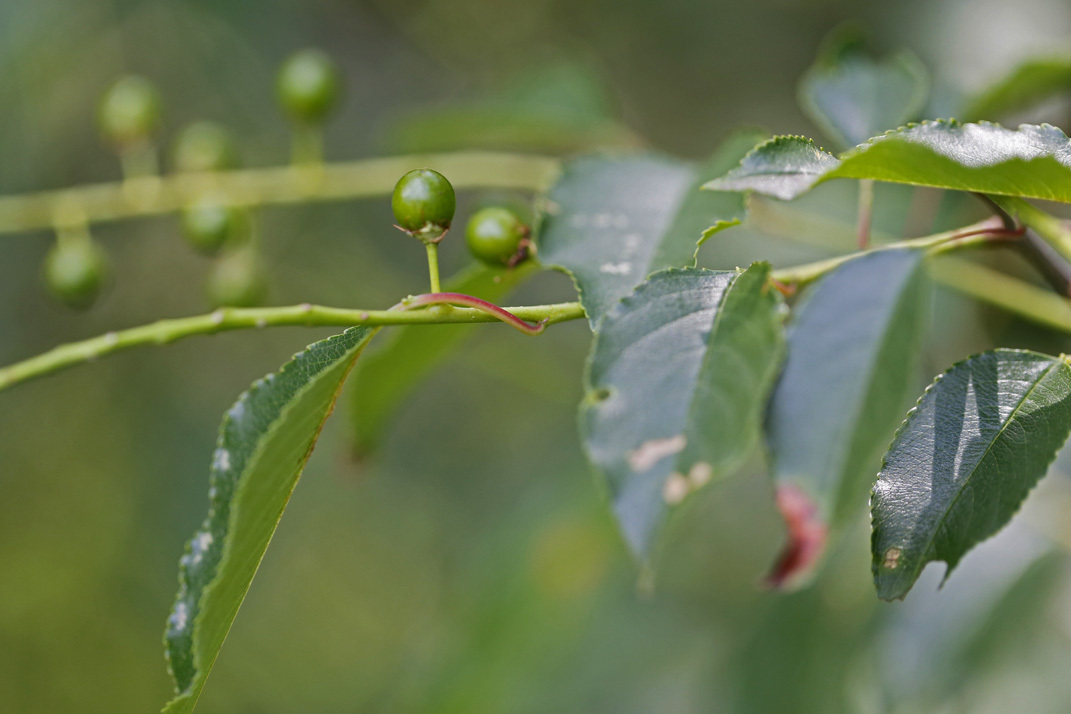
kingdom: Plantae
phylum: Tracheophyta
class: Magnoliopsida
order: Rosales
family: Rosaceae
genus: Prunus
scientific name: Prunus serotina
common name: Black cherry
